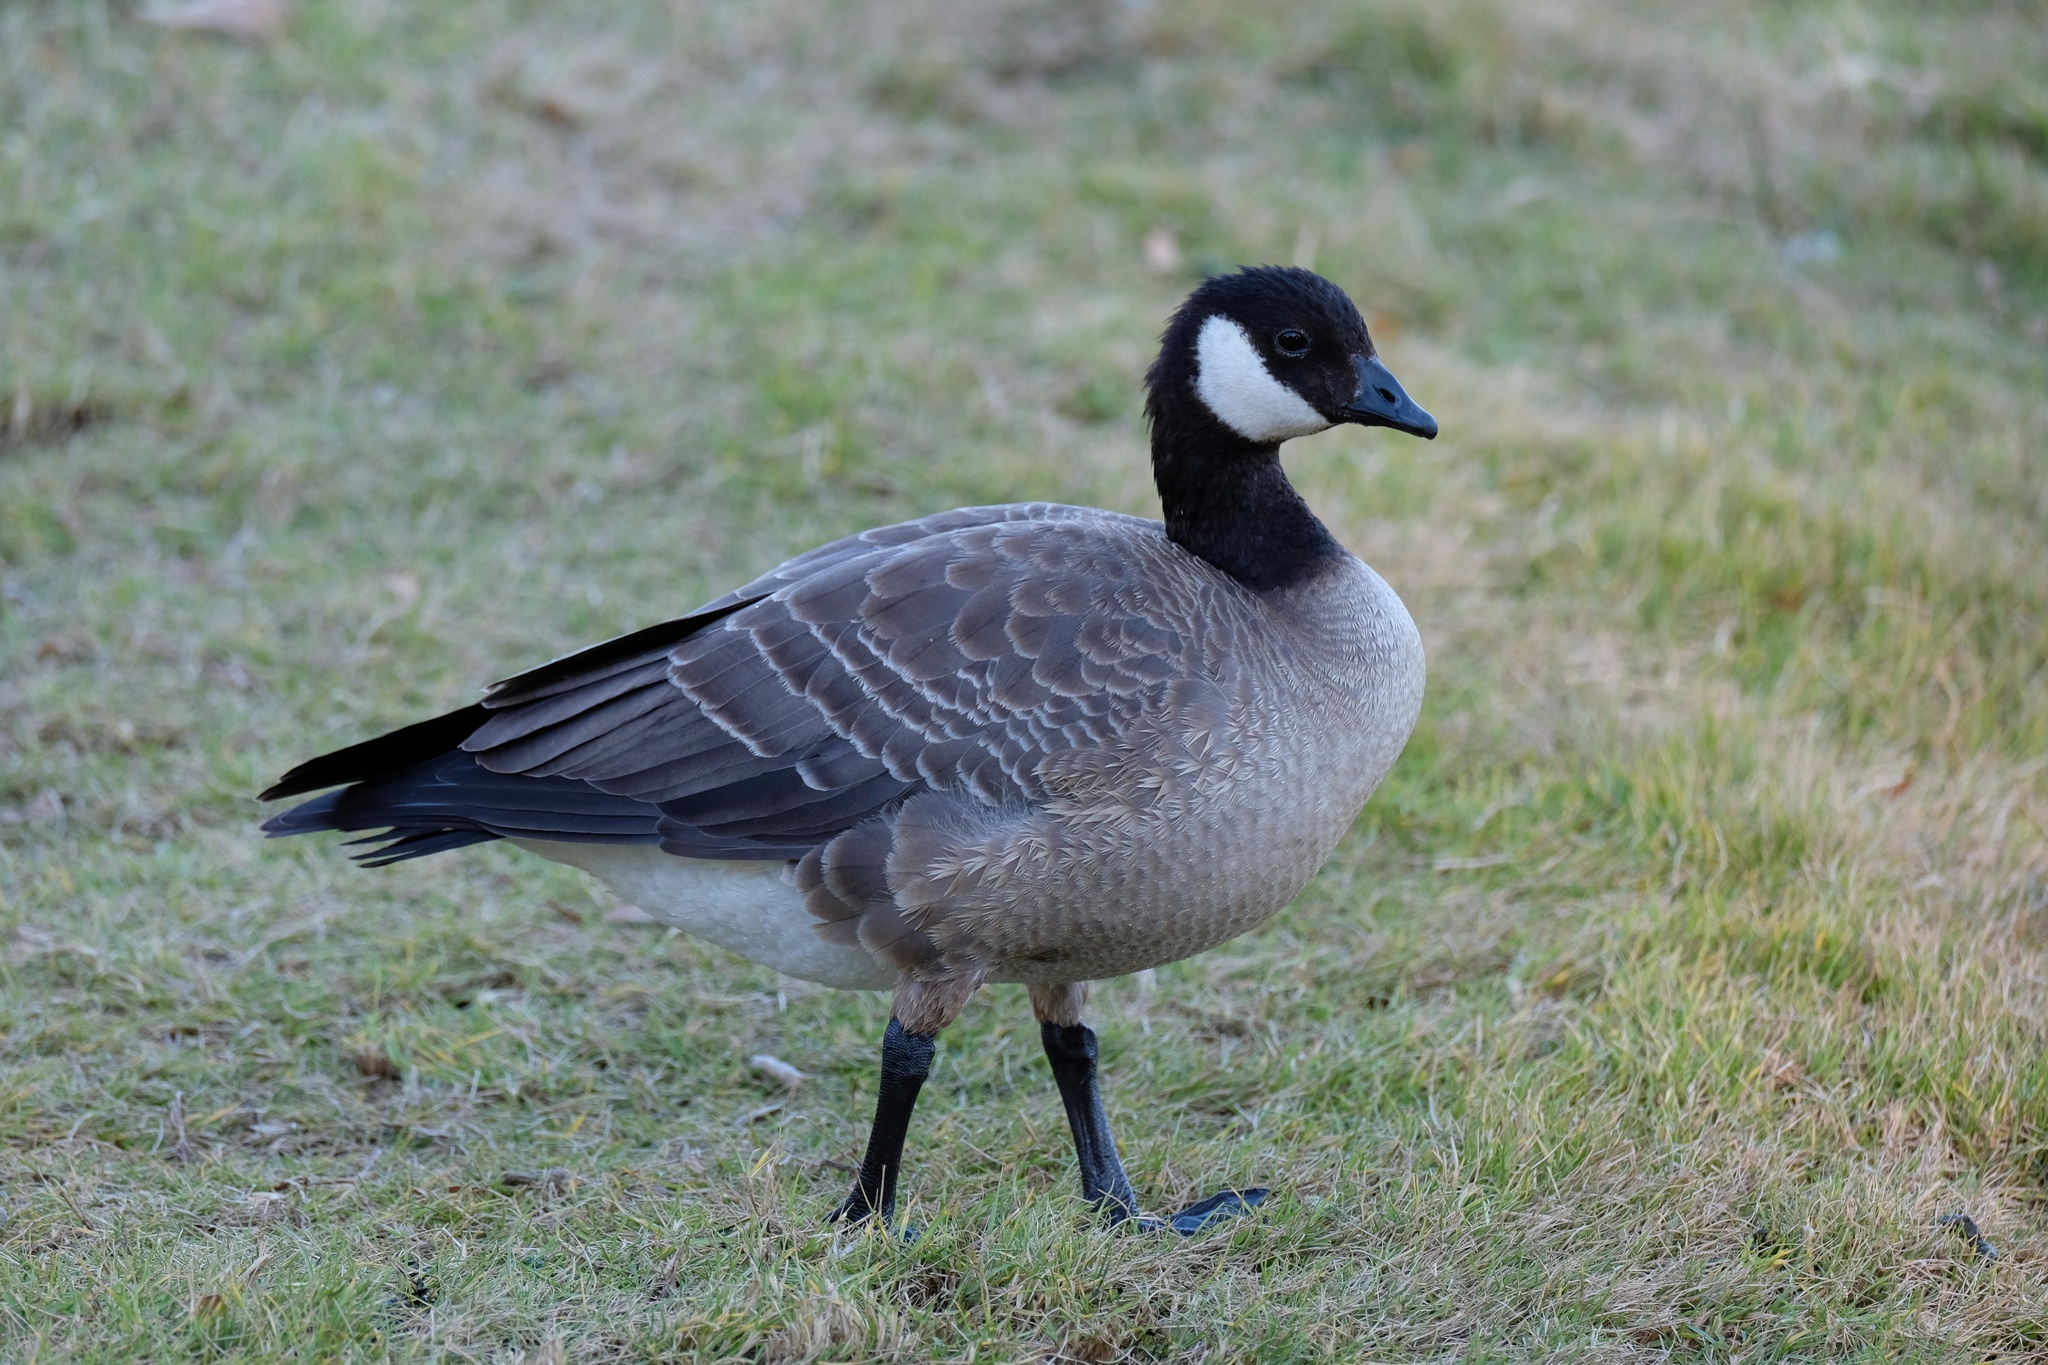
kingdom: Animalia
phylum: Chordata
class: Aves
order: Anseriformes
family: Anatidae
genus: Branta
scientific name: Branta hutchinsii
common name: Cackling goose
